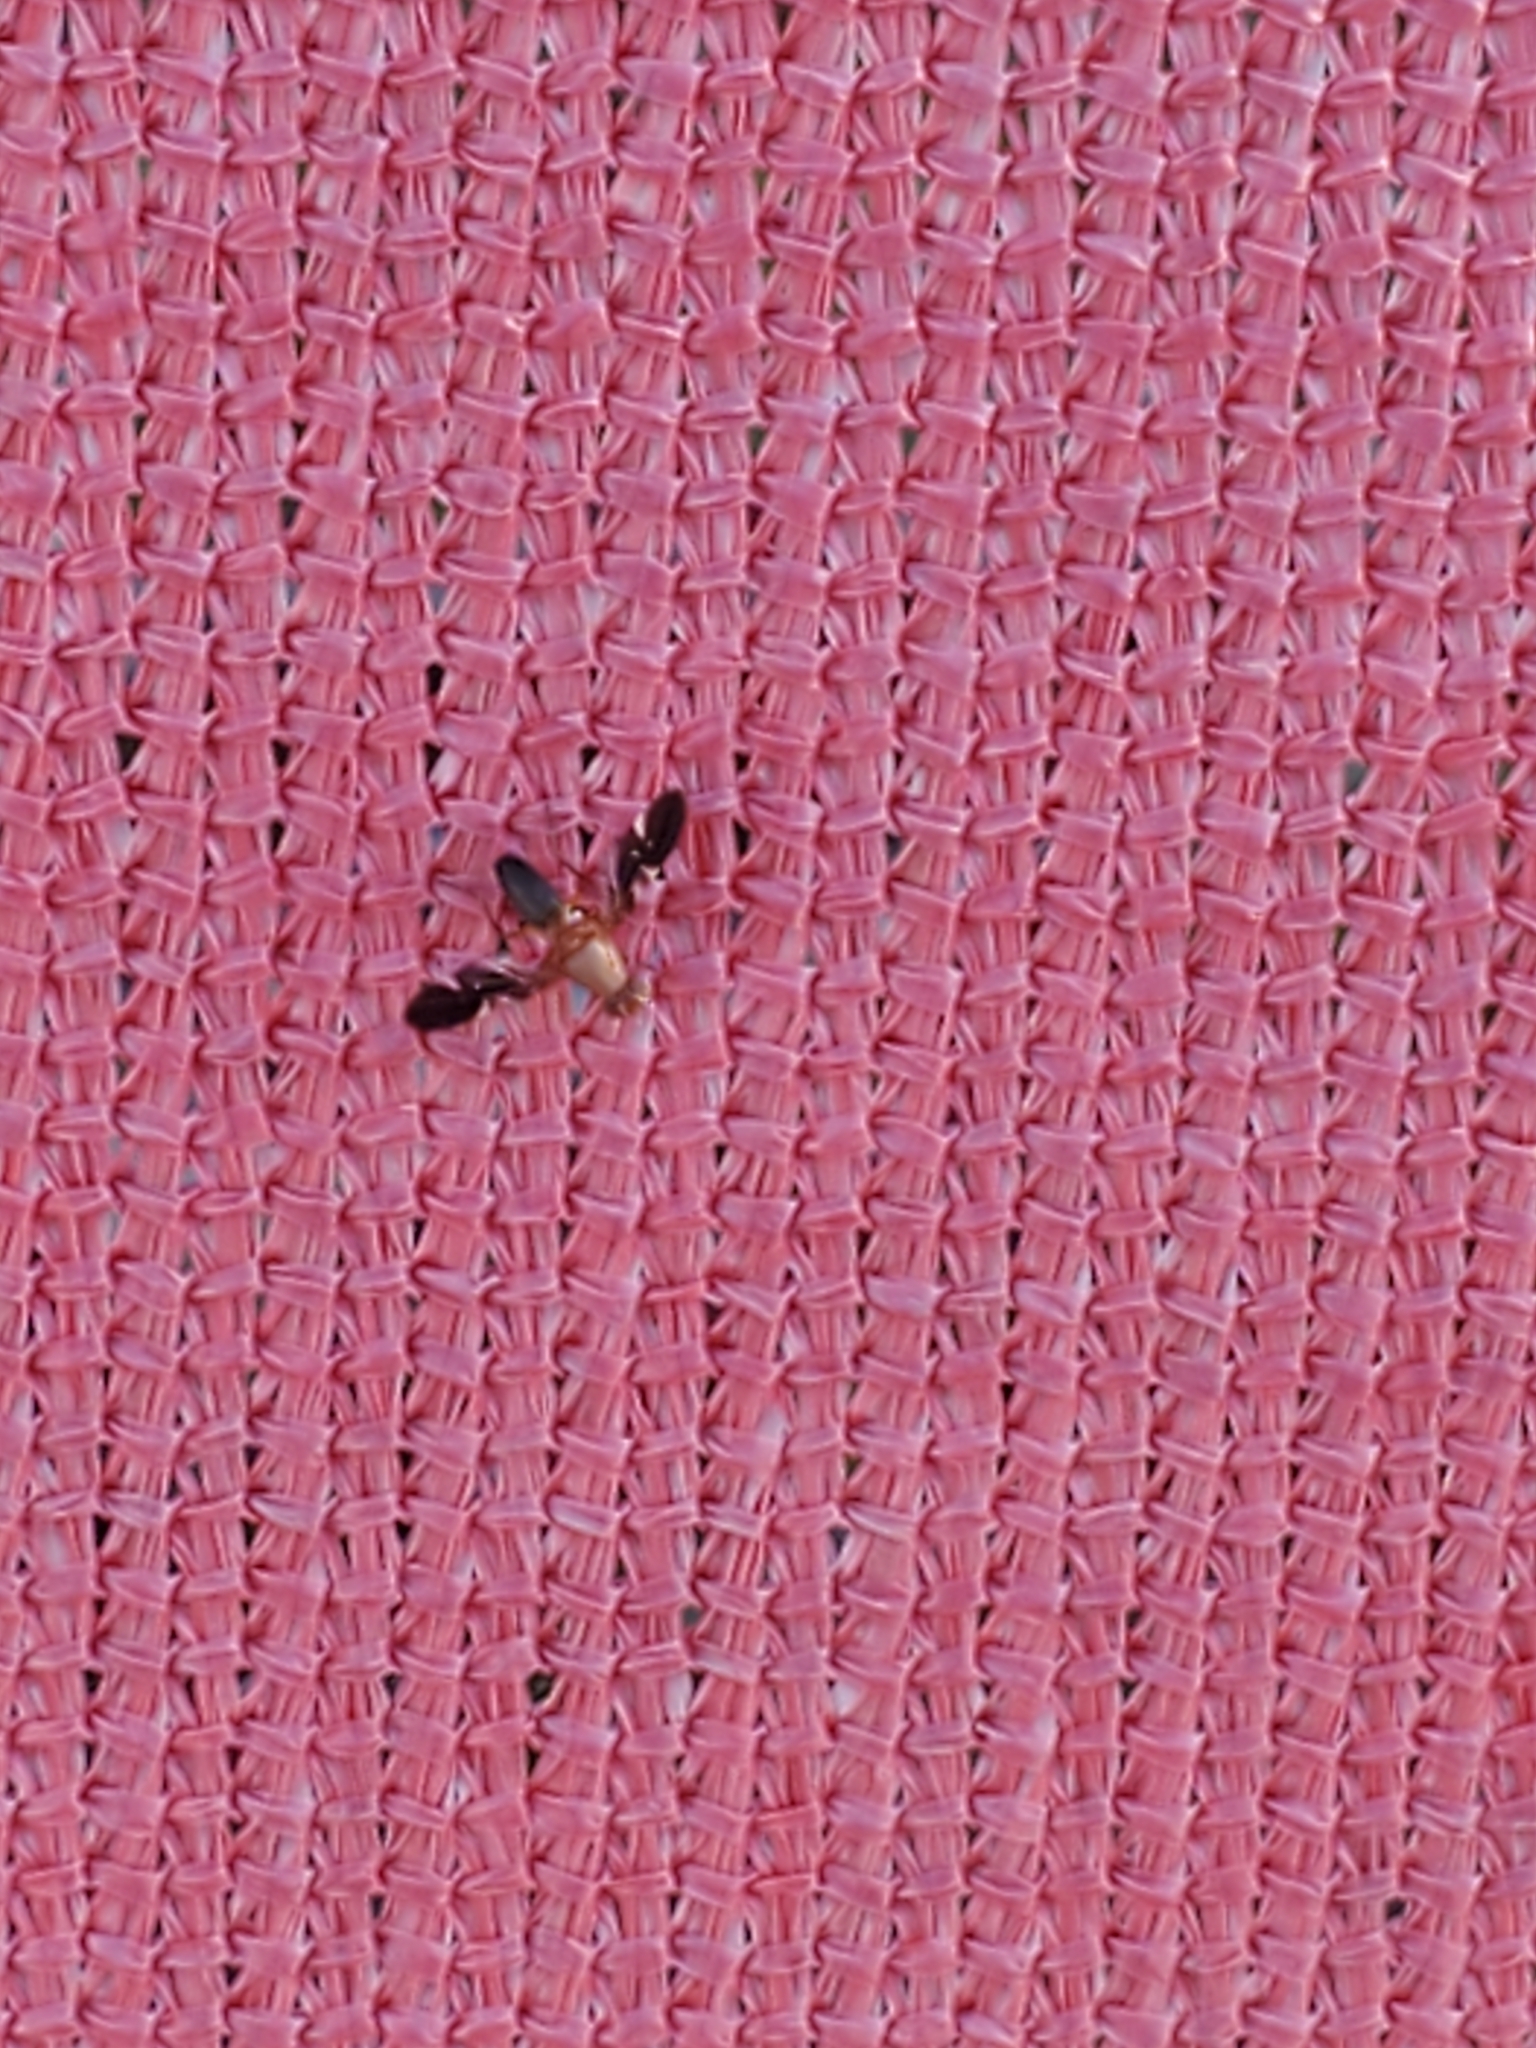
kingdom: Animalia
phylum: Arthropoda
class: Insecta
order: Diptera
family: Ulidiidae
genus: Delphinia
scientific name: Delphinia picta
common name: Common picture-winged fly
